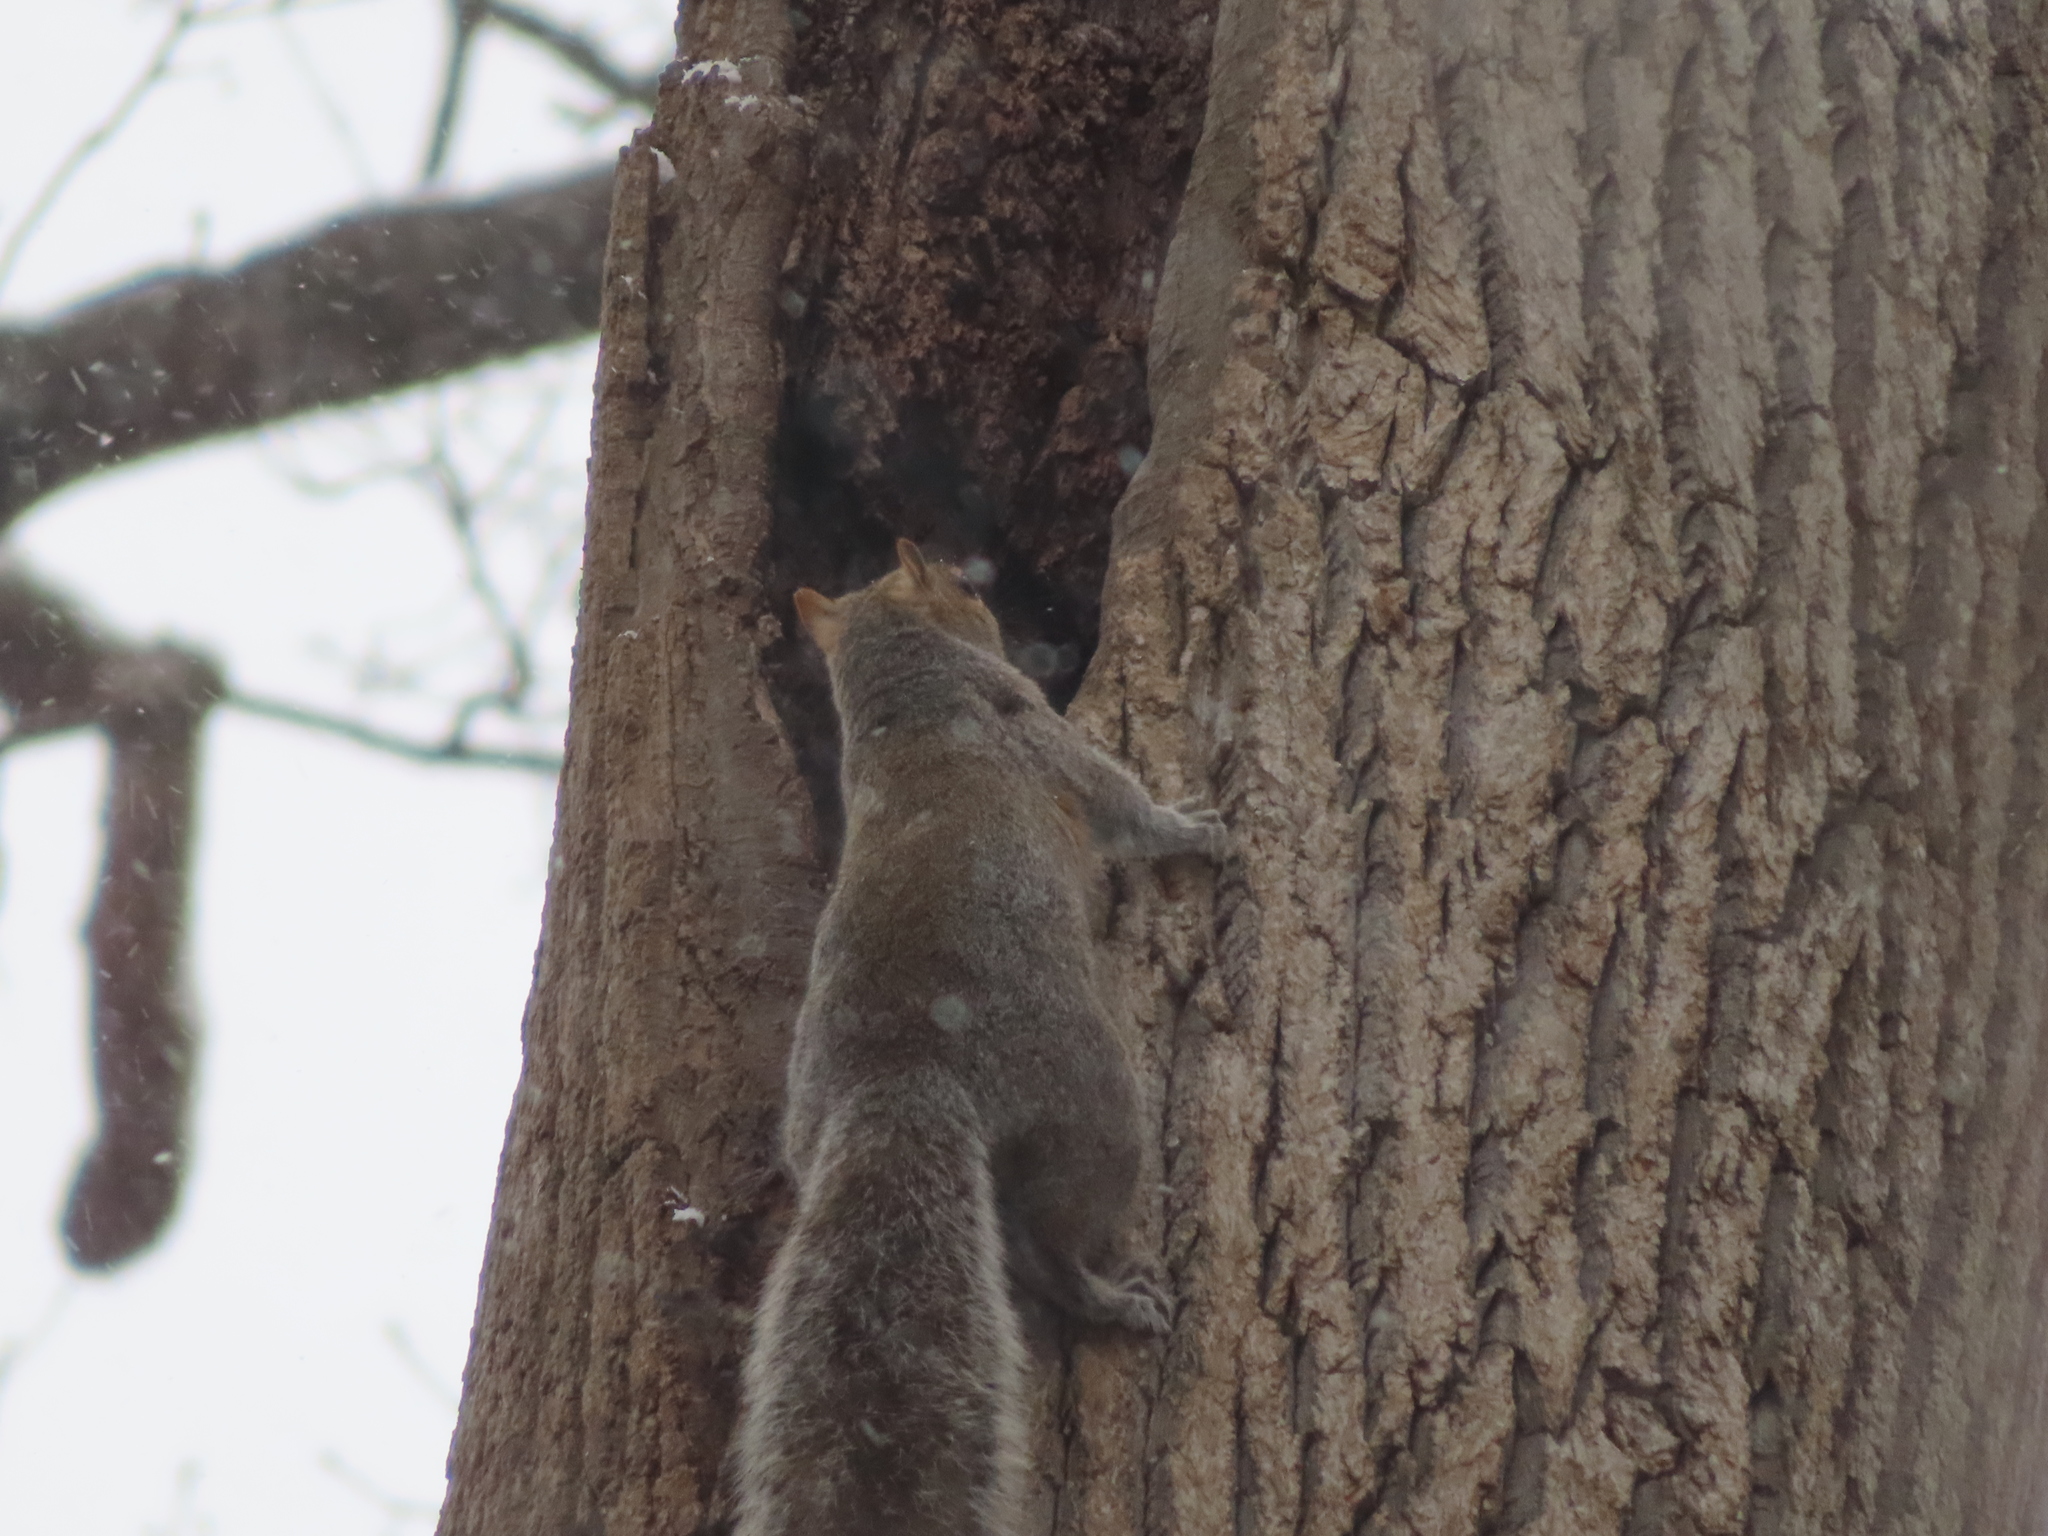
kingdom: Animalia
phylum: Chordata
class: Mammalia
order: Rodentia
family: Sciuridae
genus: Sciurus
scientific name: Sciurus carolinensis
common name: Eastern gray squirrel
